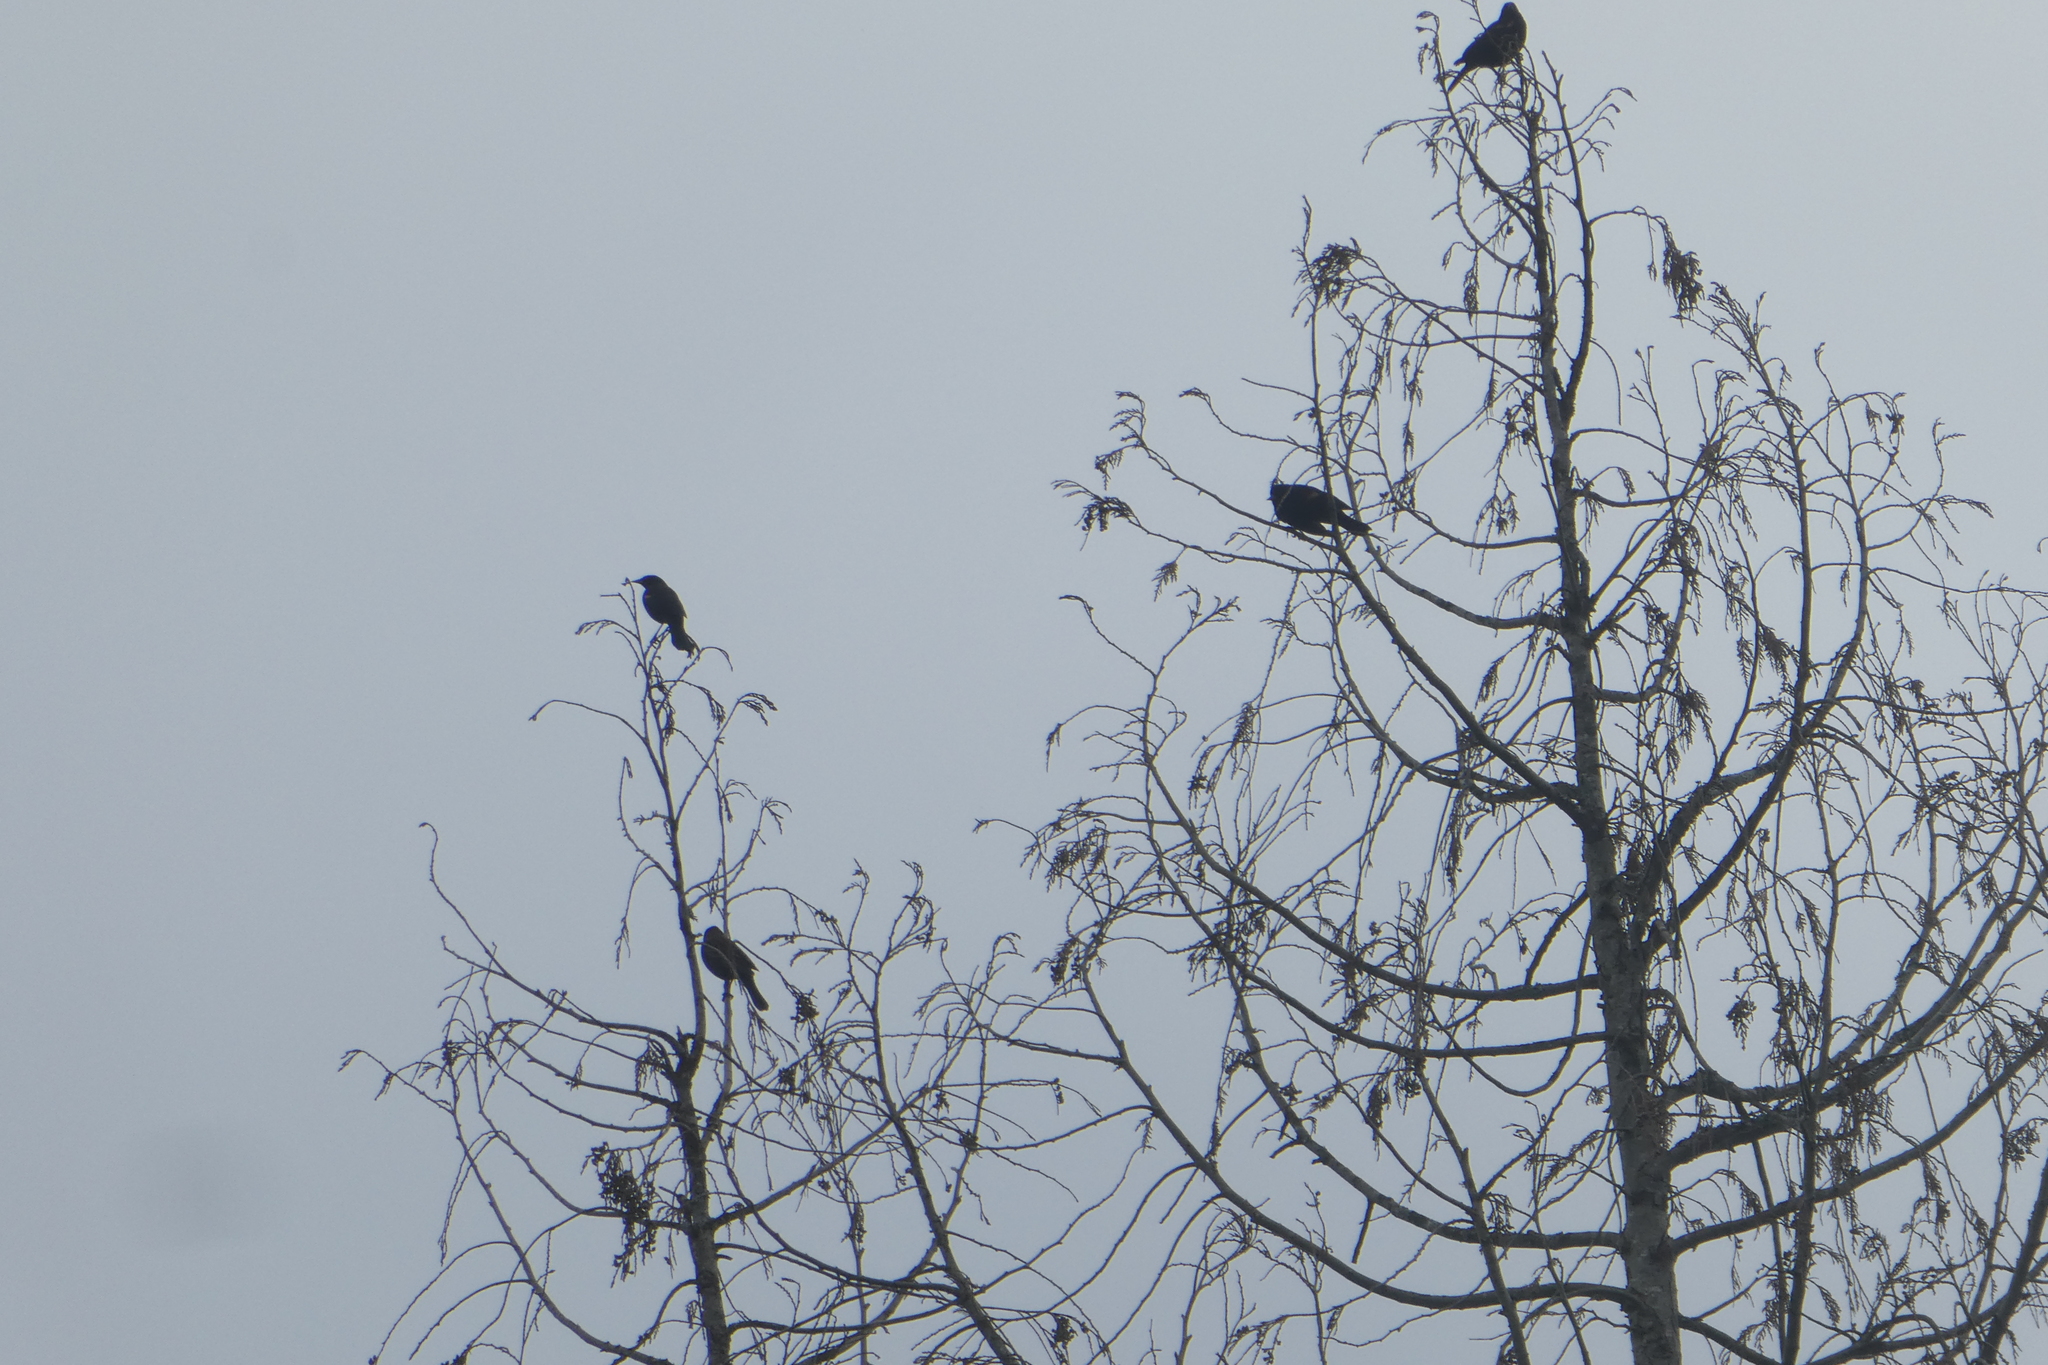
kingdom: Animalia
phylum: Chordata
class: Aves
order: Passeriformes
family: Icteridae
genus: Agelaius
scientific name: Agelaius phoeniceus
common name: Red-winged blackbird
